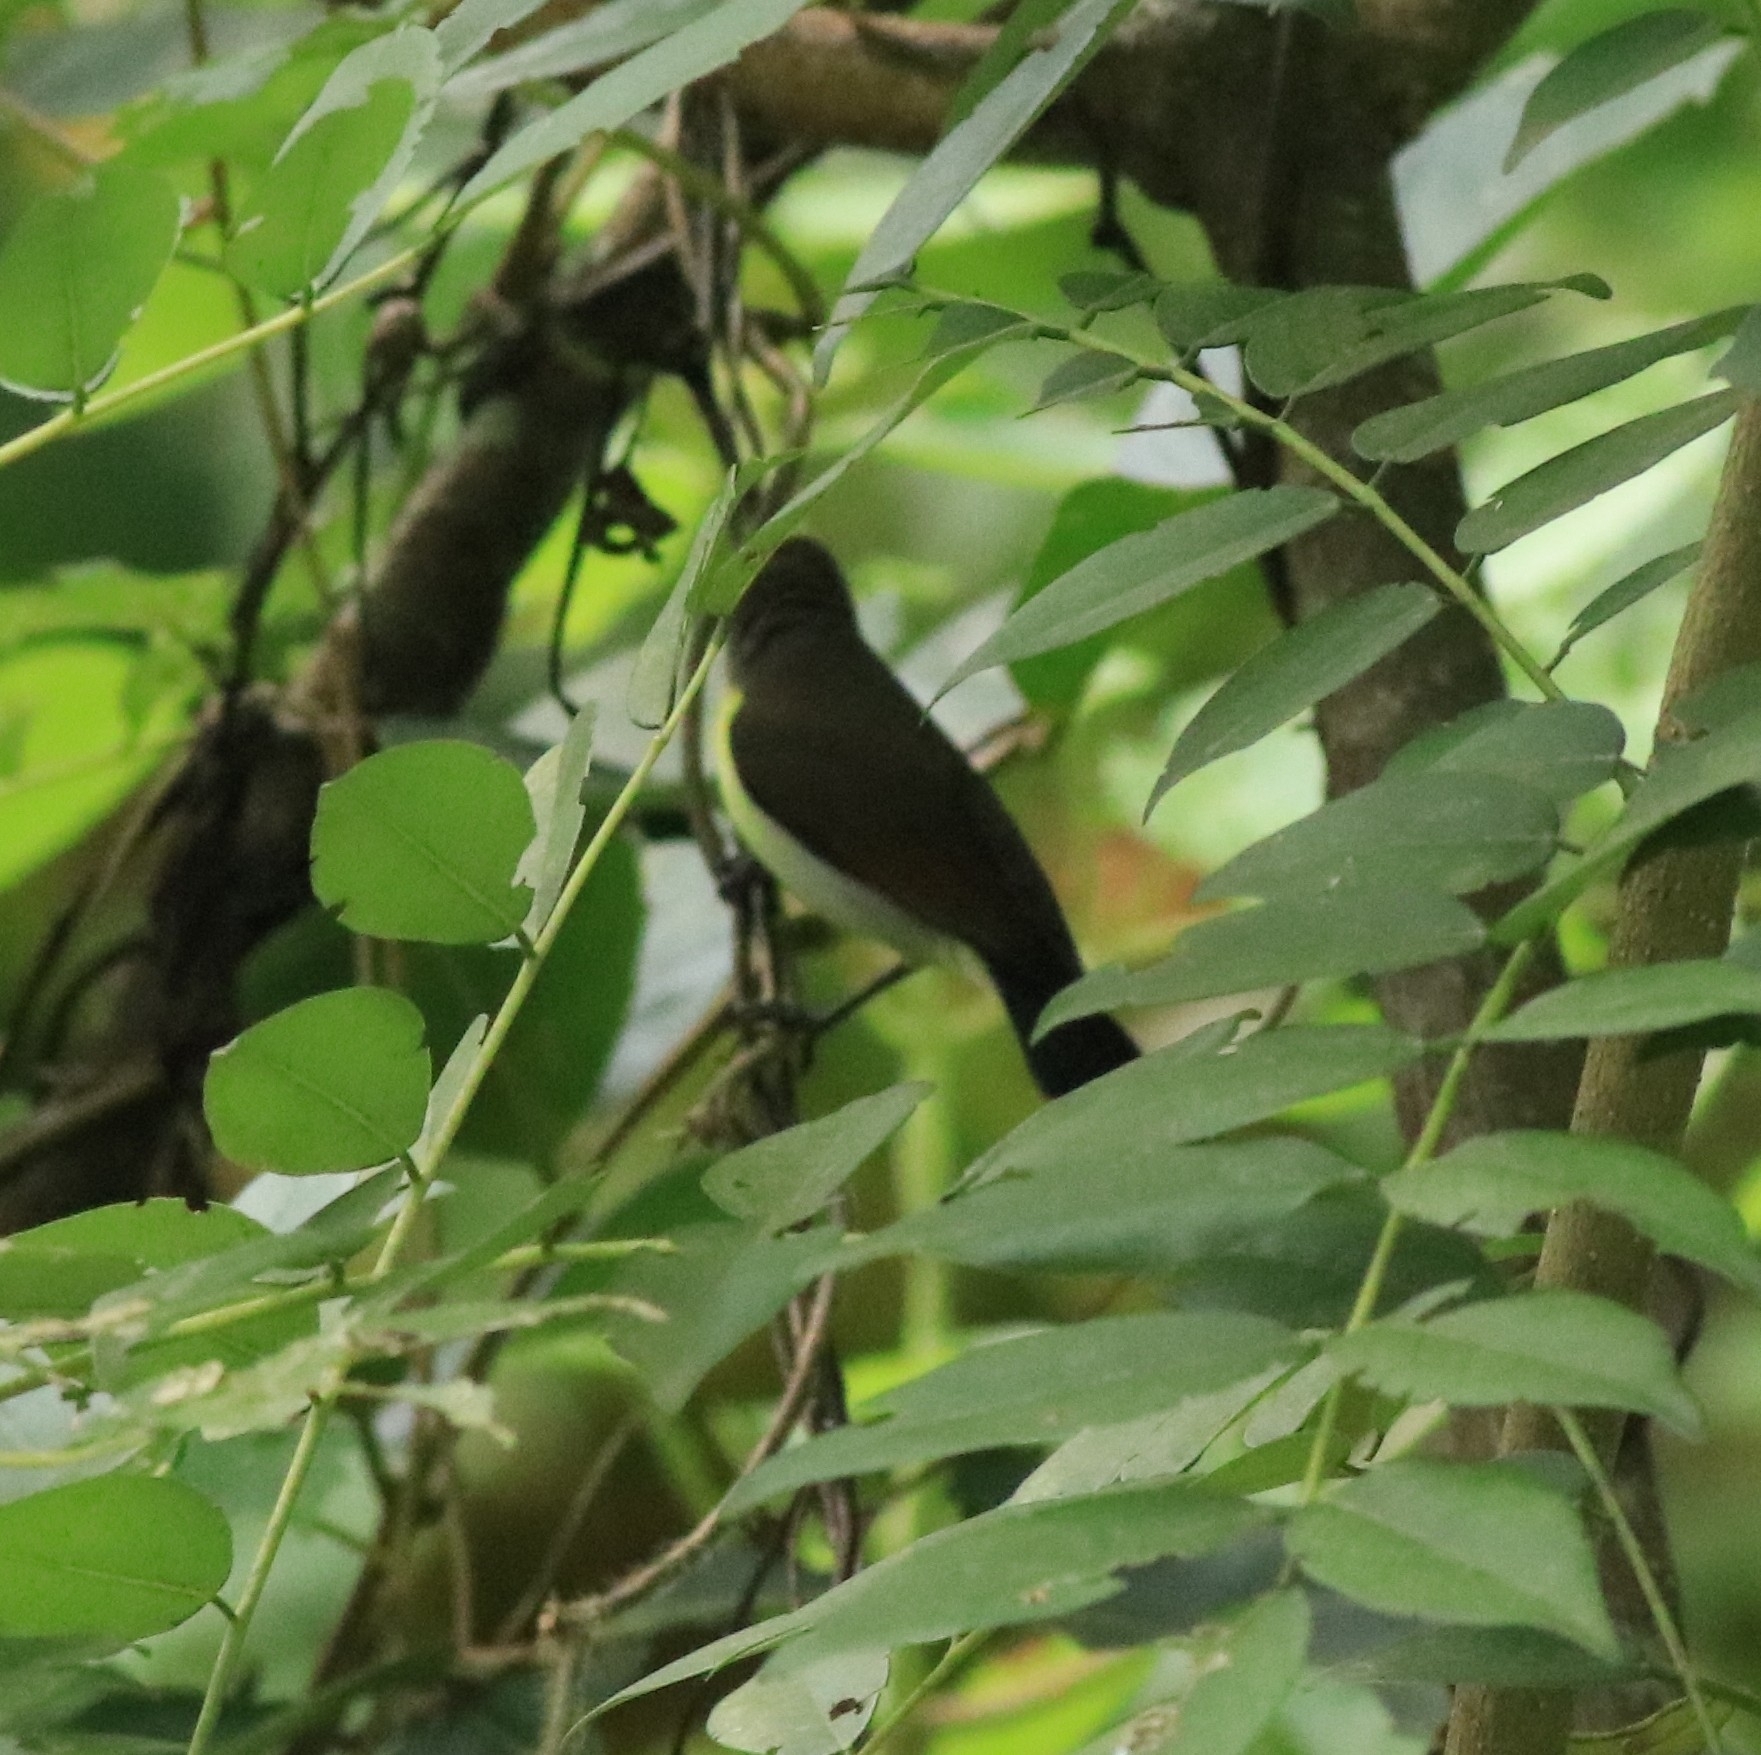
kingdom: Animalia
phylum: Chordata
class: Aves
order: Passeriformes
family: Nectariniidae
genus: Leptocoma
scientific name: Leptocoma zeylonica
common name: Purple-rumped sunbird
